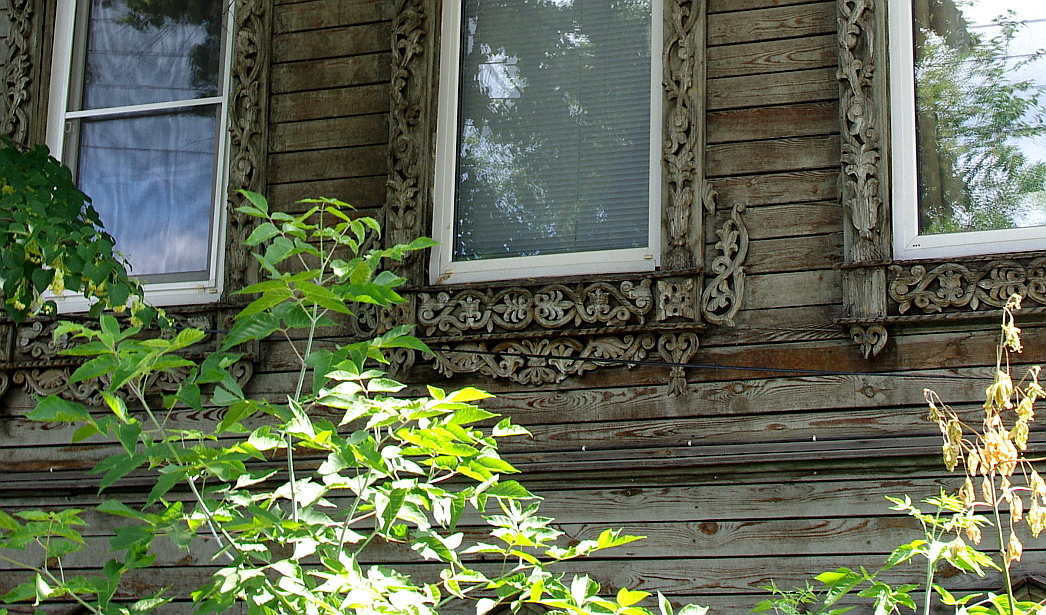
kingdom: Plantae
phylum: Tracheophyta
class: Magnoliopsida
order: Sapindales
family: Sapindaceae
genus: Acer
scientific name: Acer negundo
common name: Ashleaf maple
